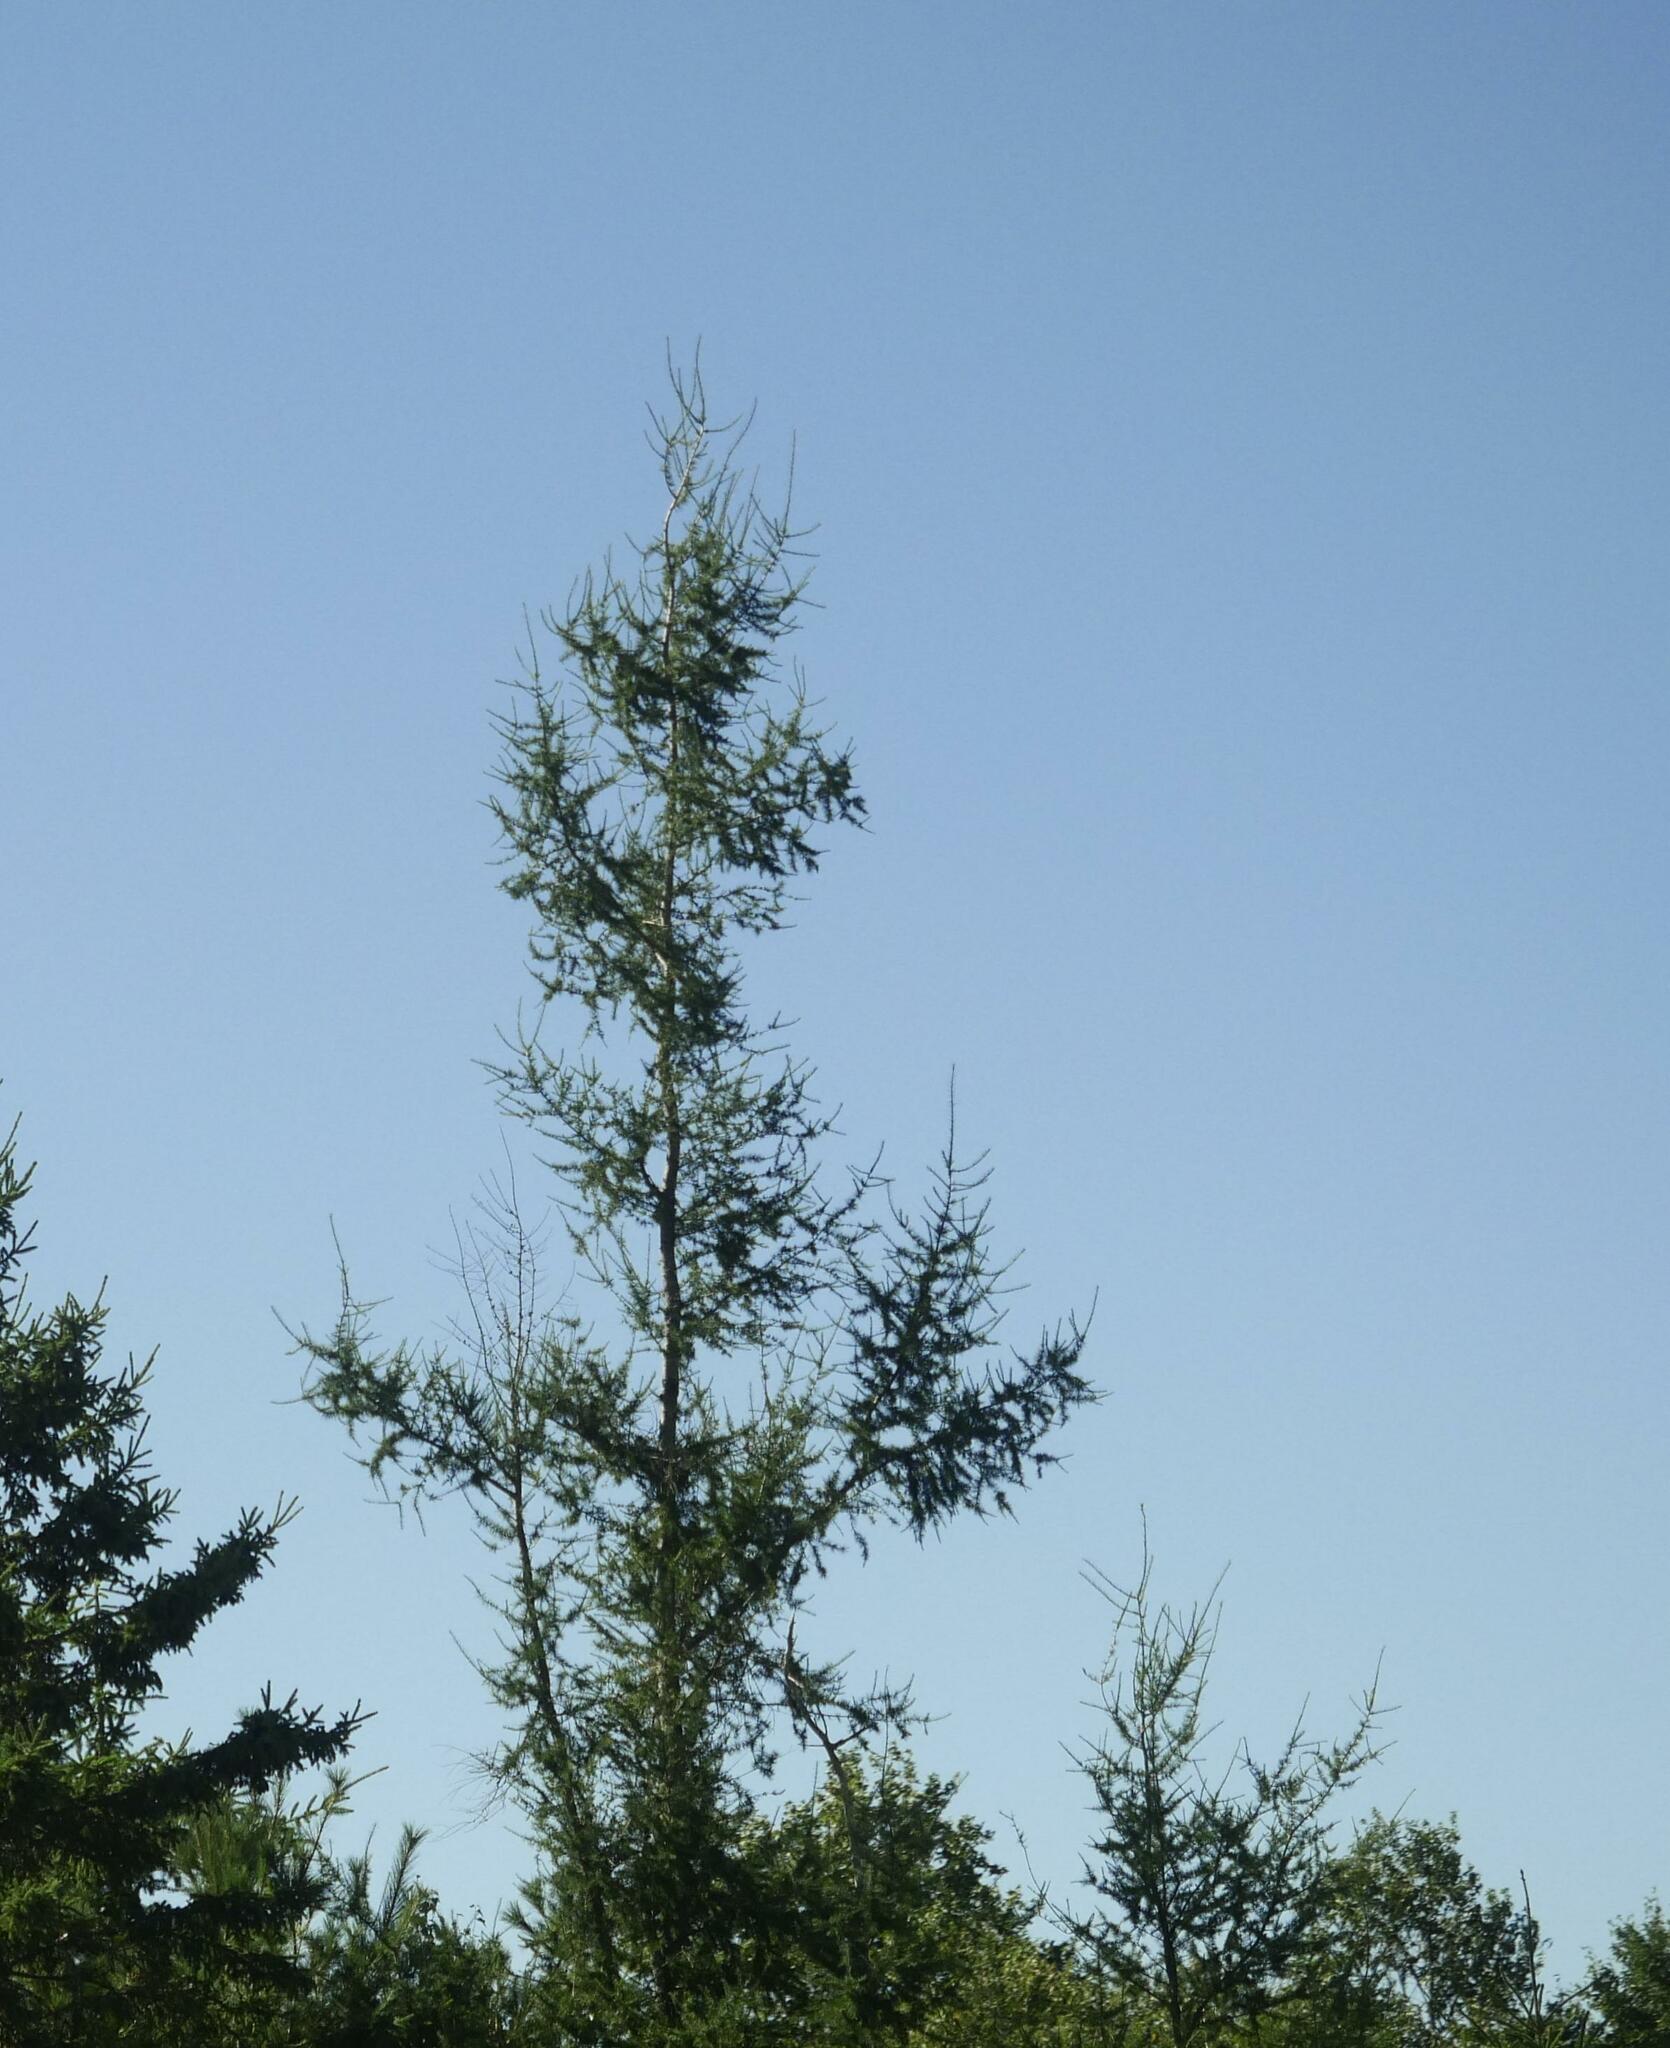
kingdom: Plantae
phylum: Tracheophyta
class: Pinopsida
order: Pinales
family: Pinaceae
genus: Larix
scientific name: Larix laricina
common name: American larch
